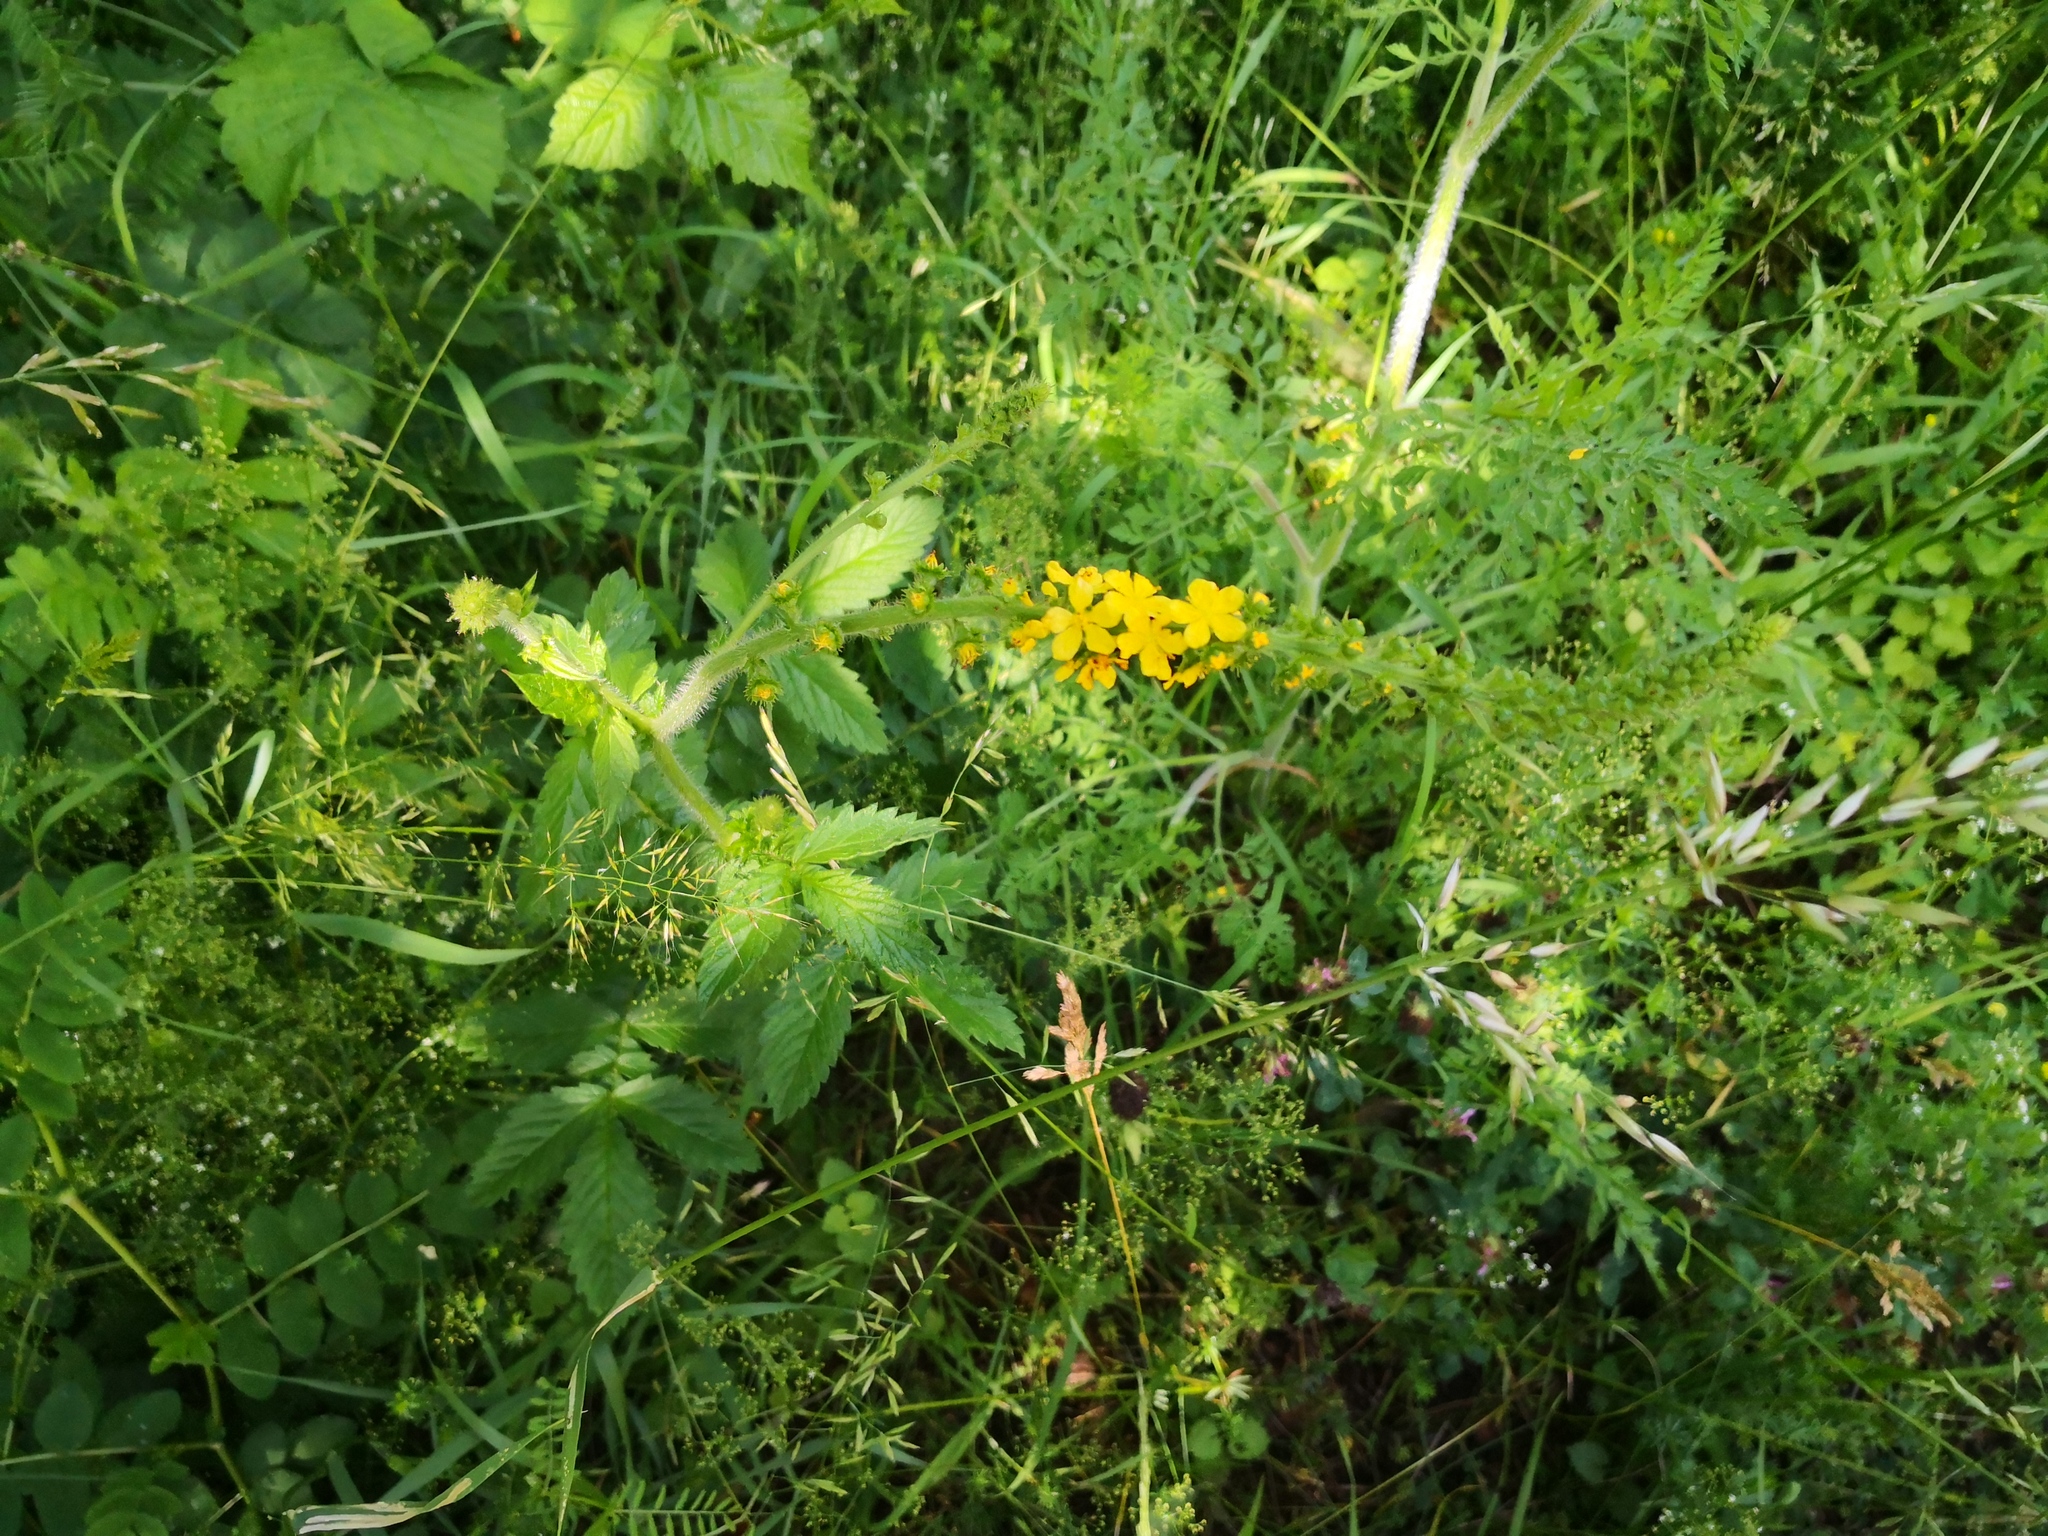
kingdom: Plantae
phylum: Tracheophyta
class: Magnoliopsida
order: Rosales
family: Rosaceae
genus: Agrimonia
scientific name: Agrimonia eupatoria
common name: Agrimony
